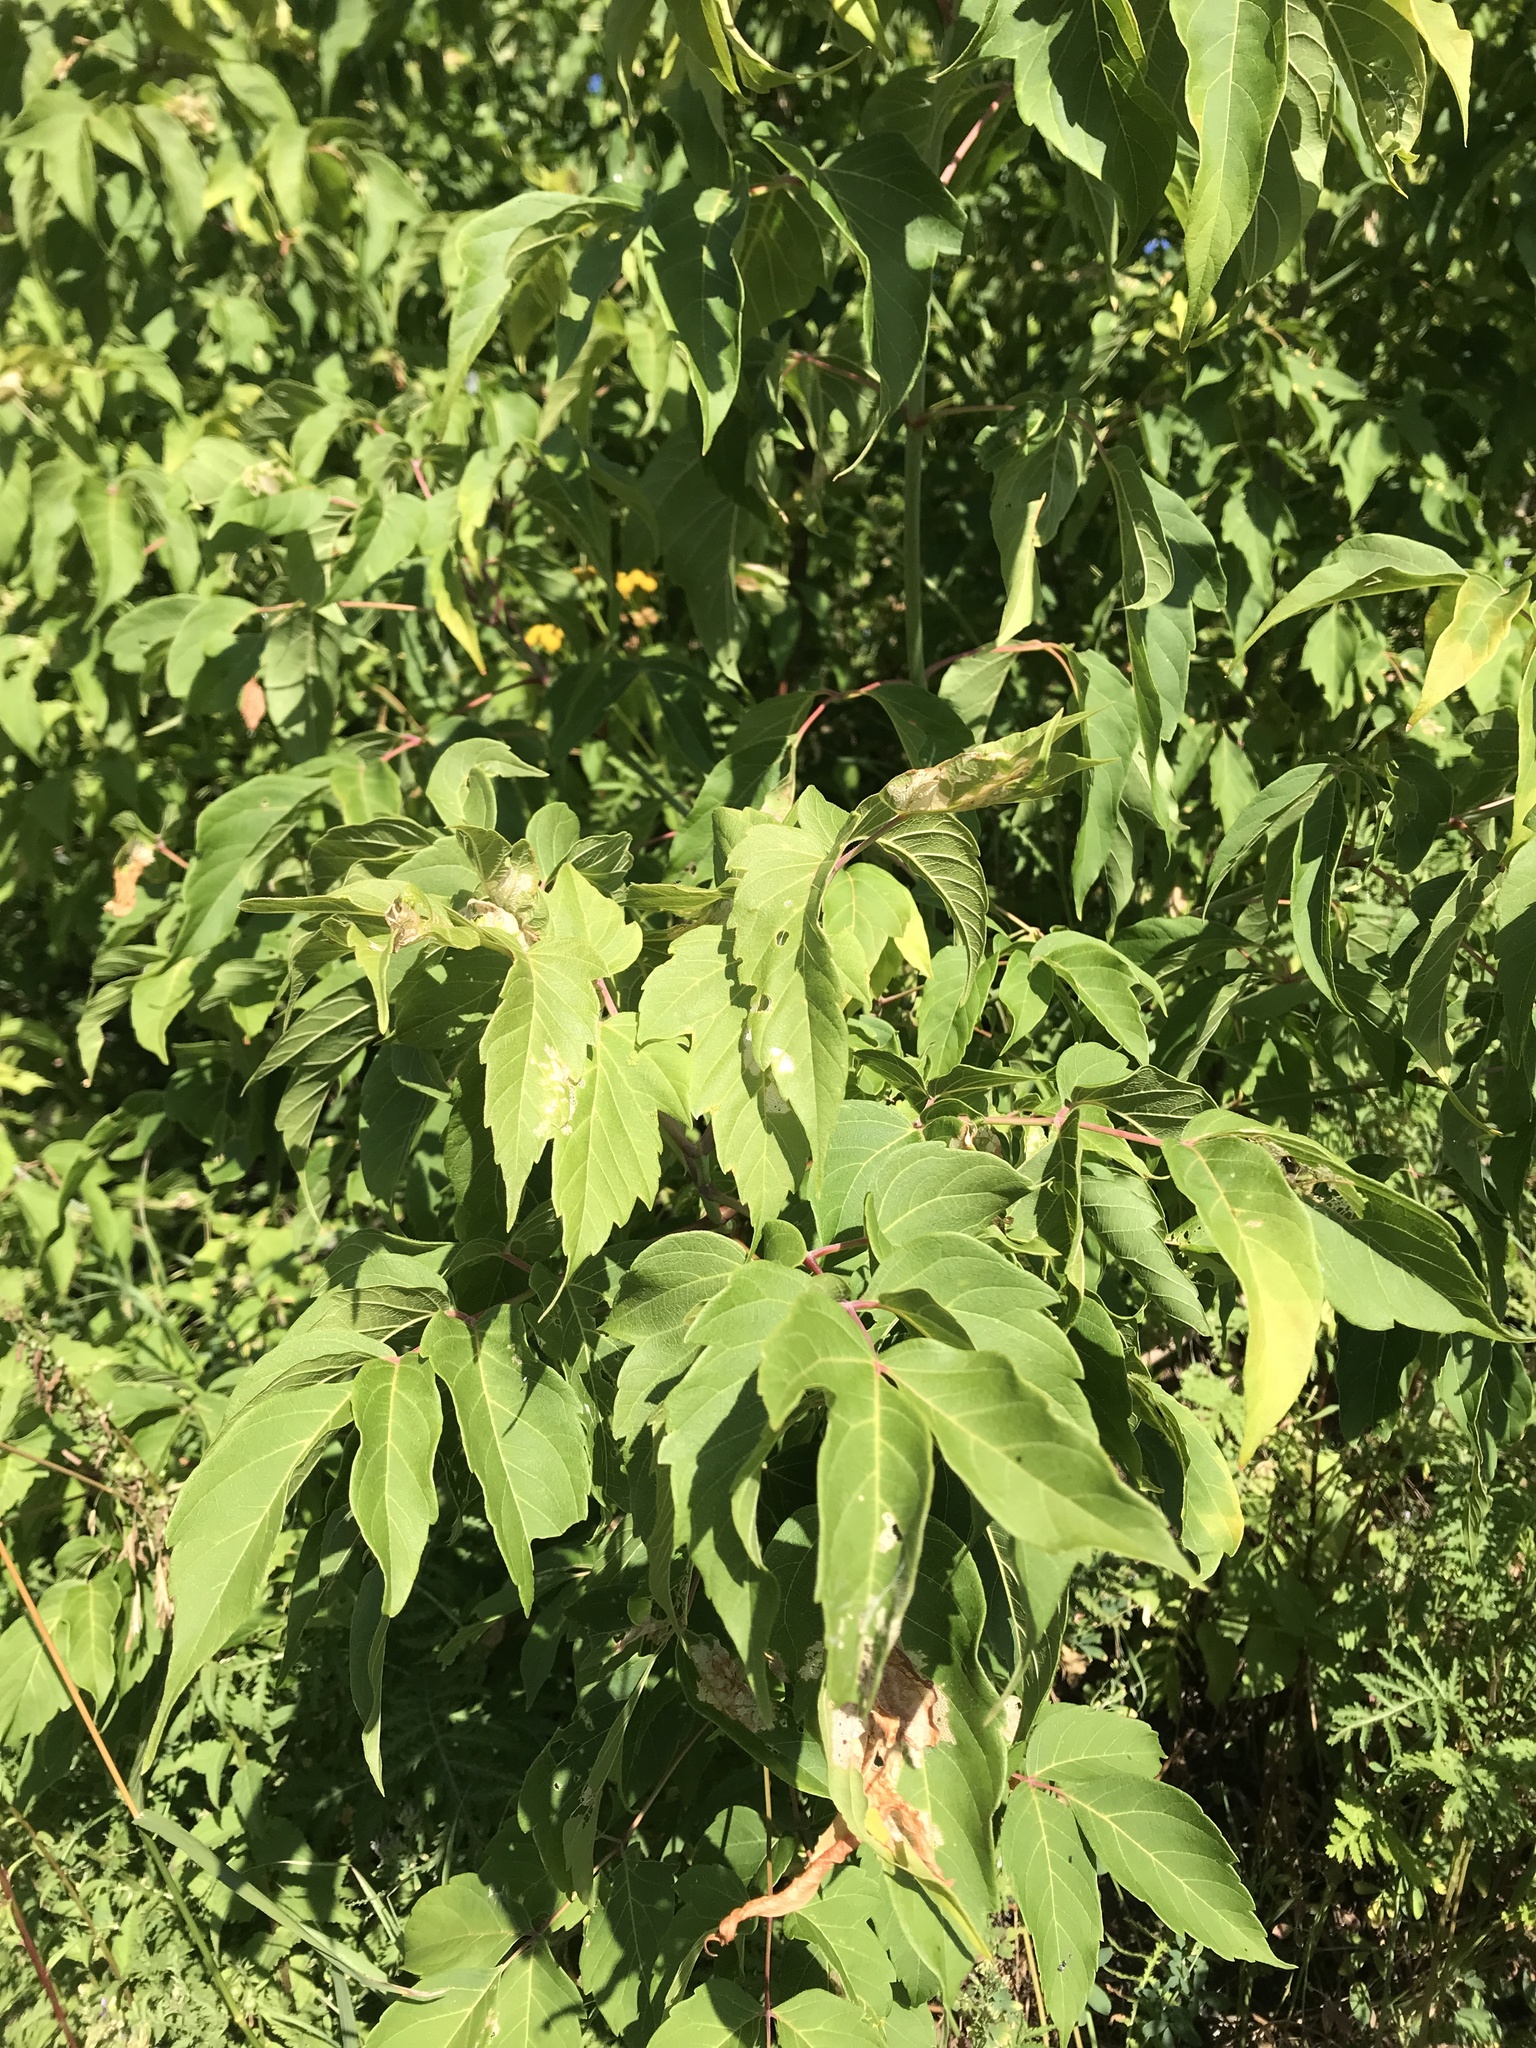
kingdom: Plantae
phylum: Tracheophyta
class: Magnoliopsida
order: Sapindales
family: Sapindaceae
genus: Acer
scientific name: Acer negundo
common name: Ashleaf maple
